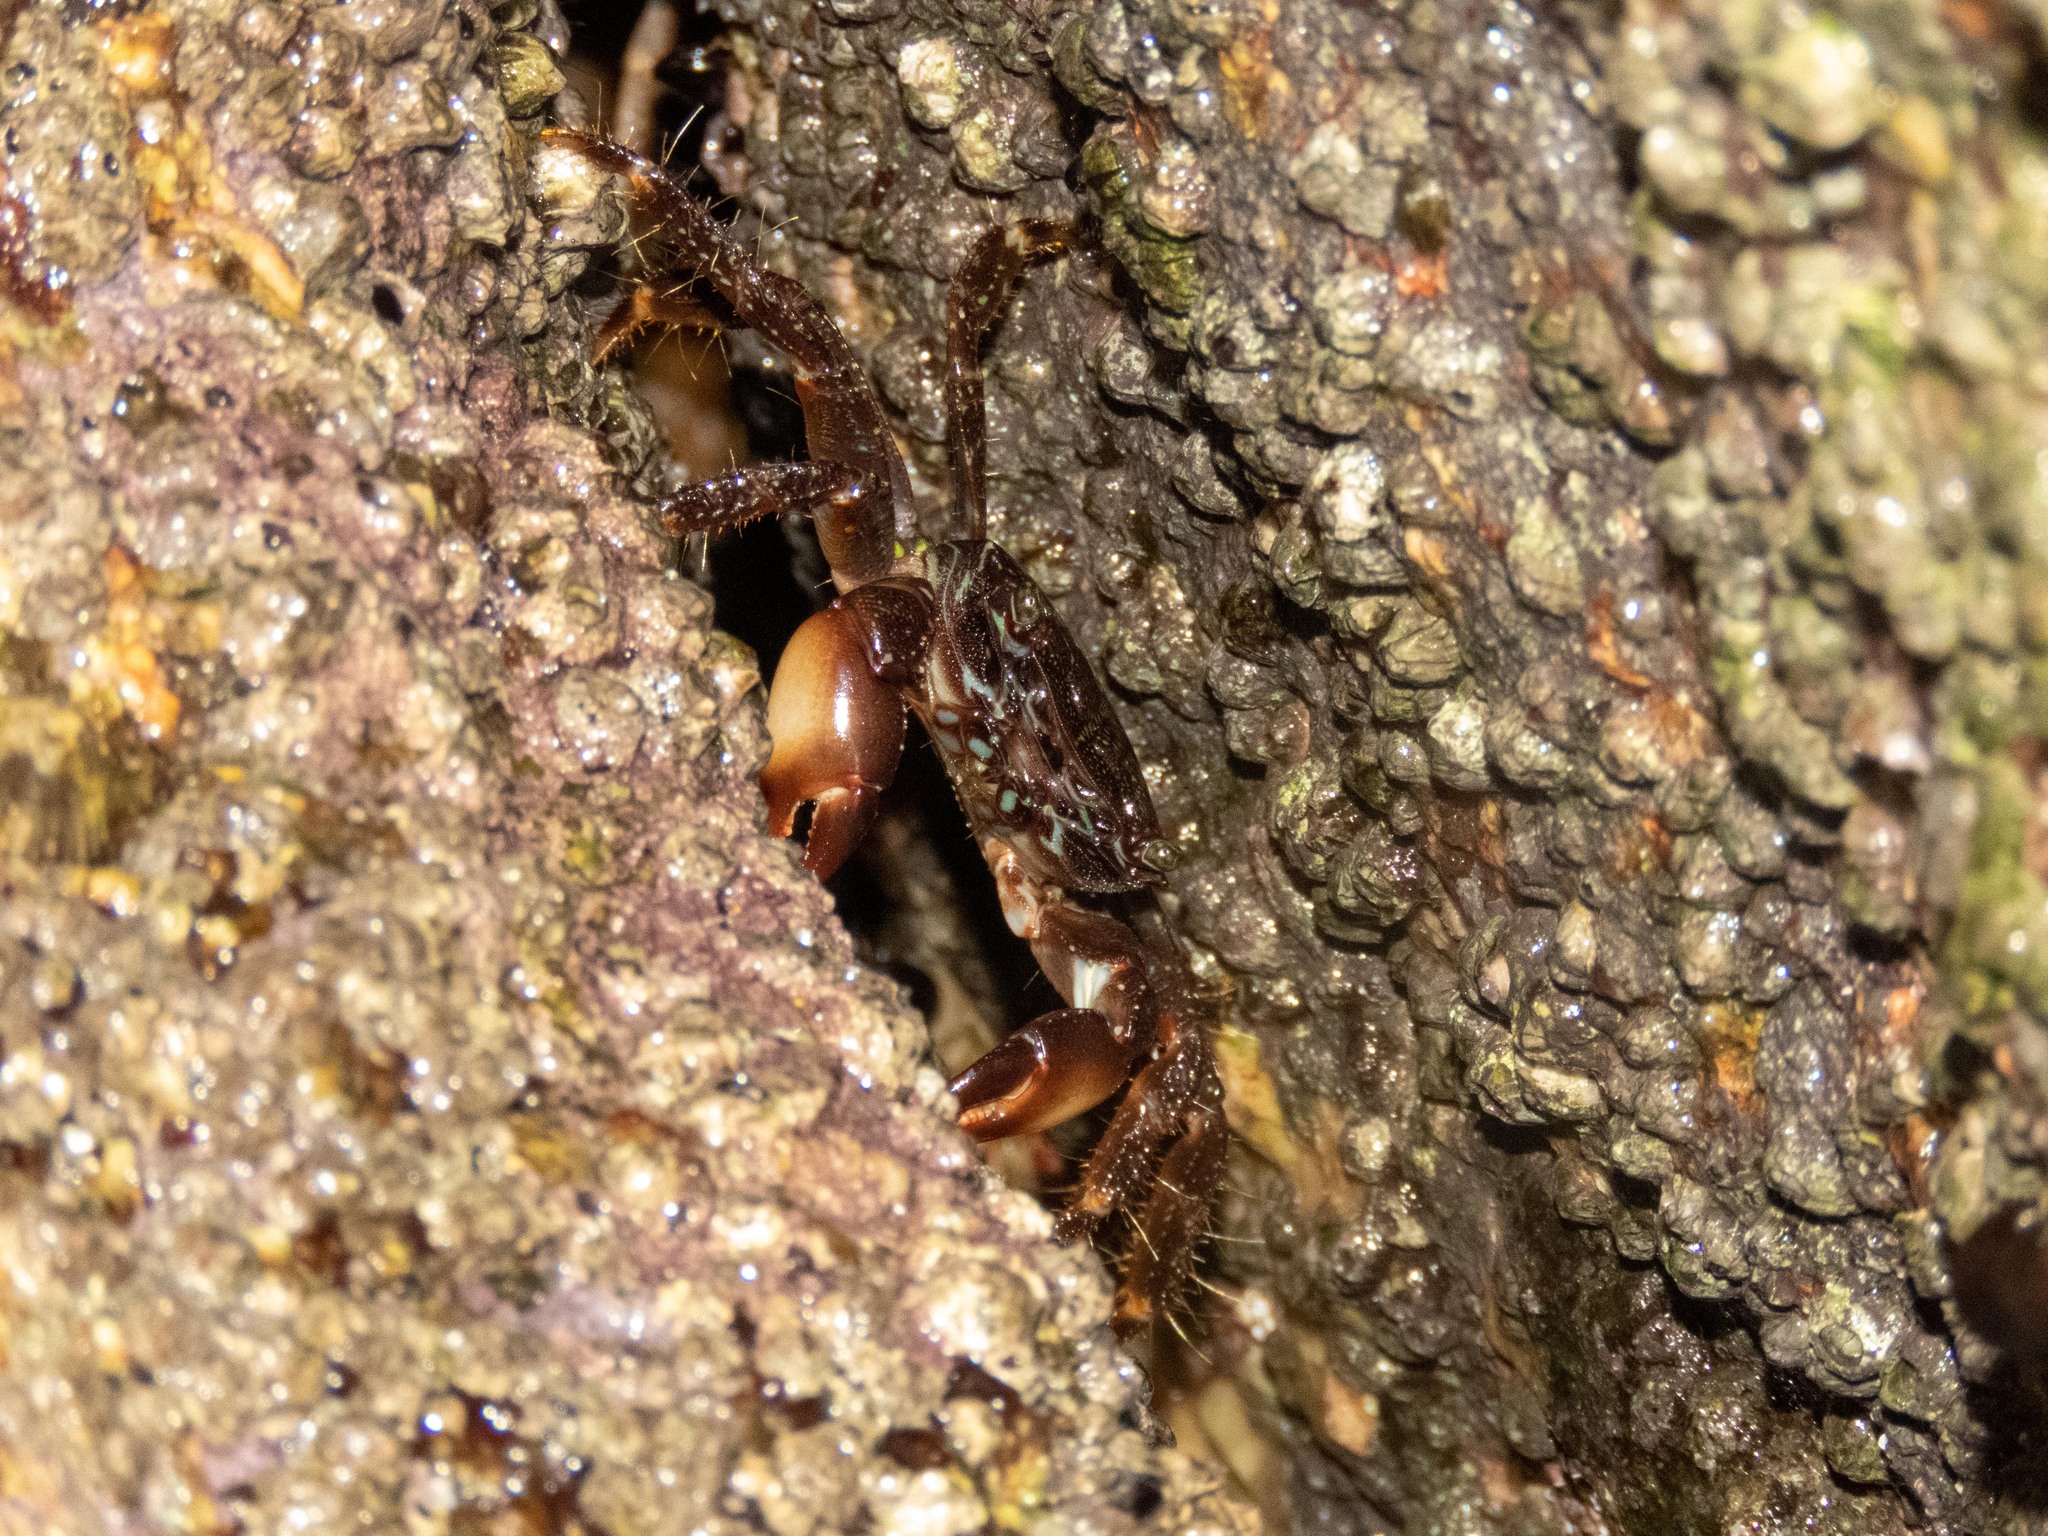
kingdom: Animalia
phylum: Arthropoda
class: Malacostraca
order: Decapoda
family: Grapsidae
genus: Pachygrapsus
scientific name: Pachygrapsus marmoratus
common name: Marbled rock crab
